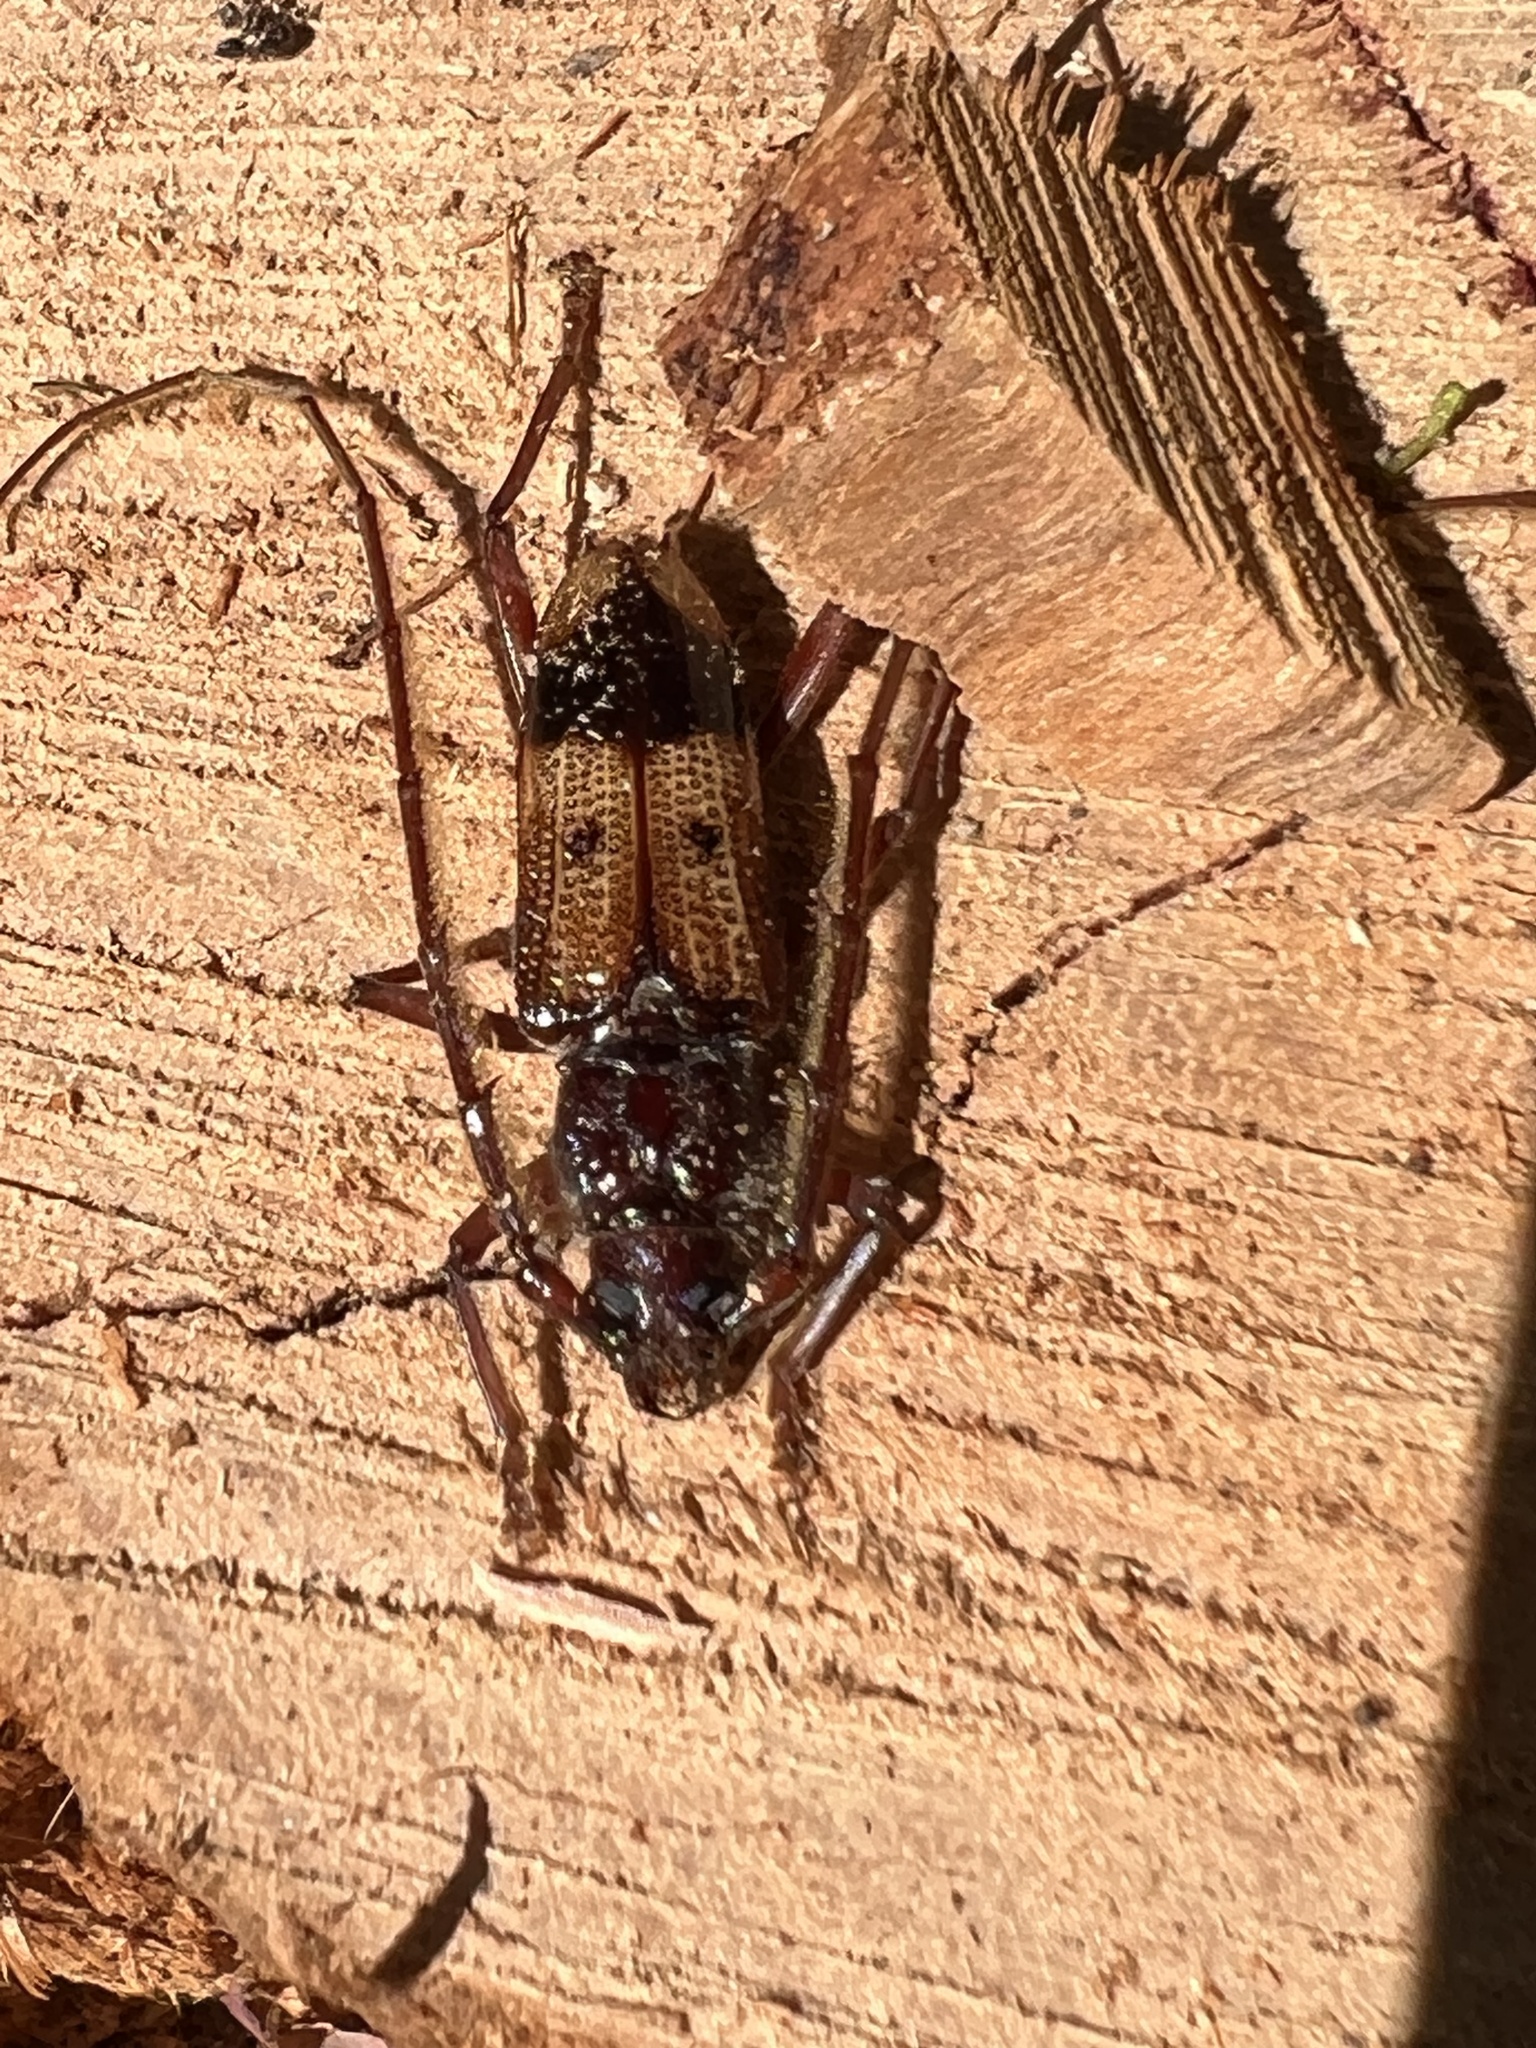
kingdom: Animalia
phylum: Arthropoda
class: Insecta
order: Coleoptera
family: Cerambycidae
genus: Phoracantha
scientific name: Phoracantha recurva
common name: Eucalyptus longhorned borer
